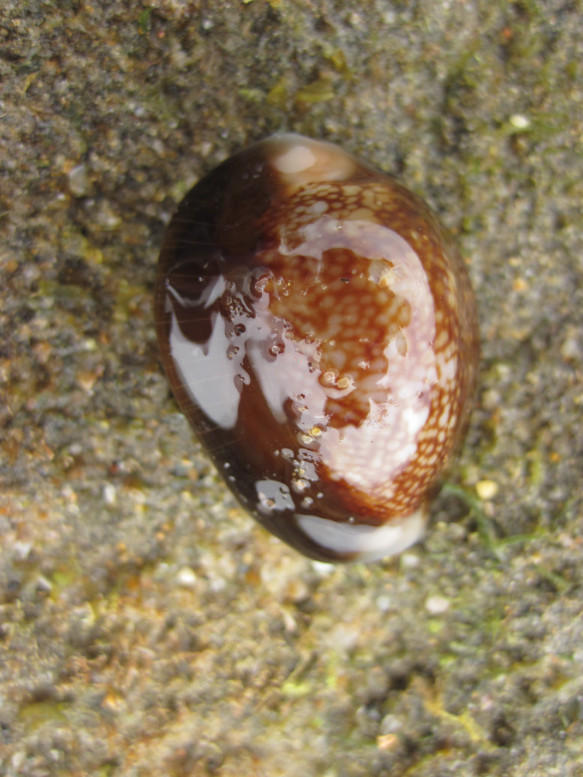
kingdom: Animalia
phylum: Mollusca
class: Gastropoda
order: Littorinimorpha
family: Cypraeidae
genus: Monetaria
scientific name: Monetaria caputserpentis
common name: Serpent's head cowrie
